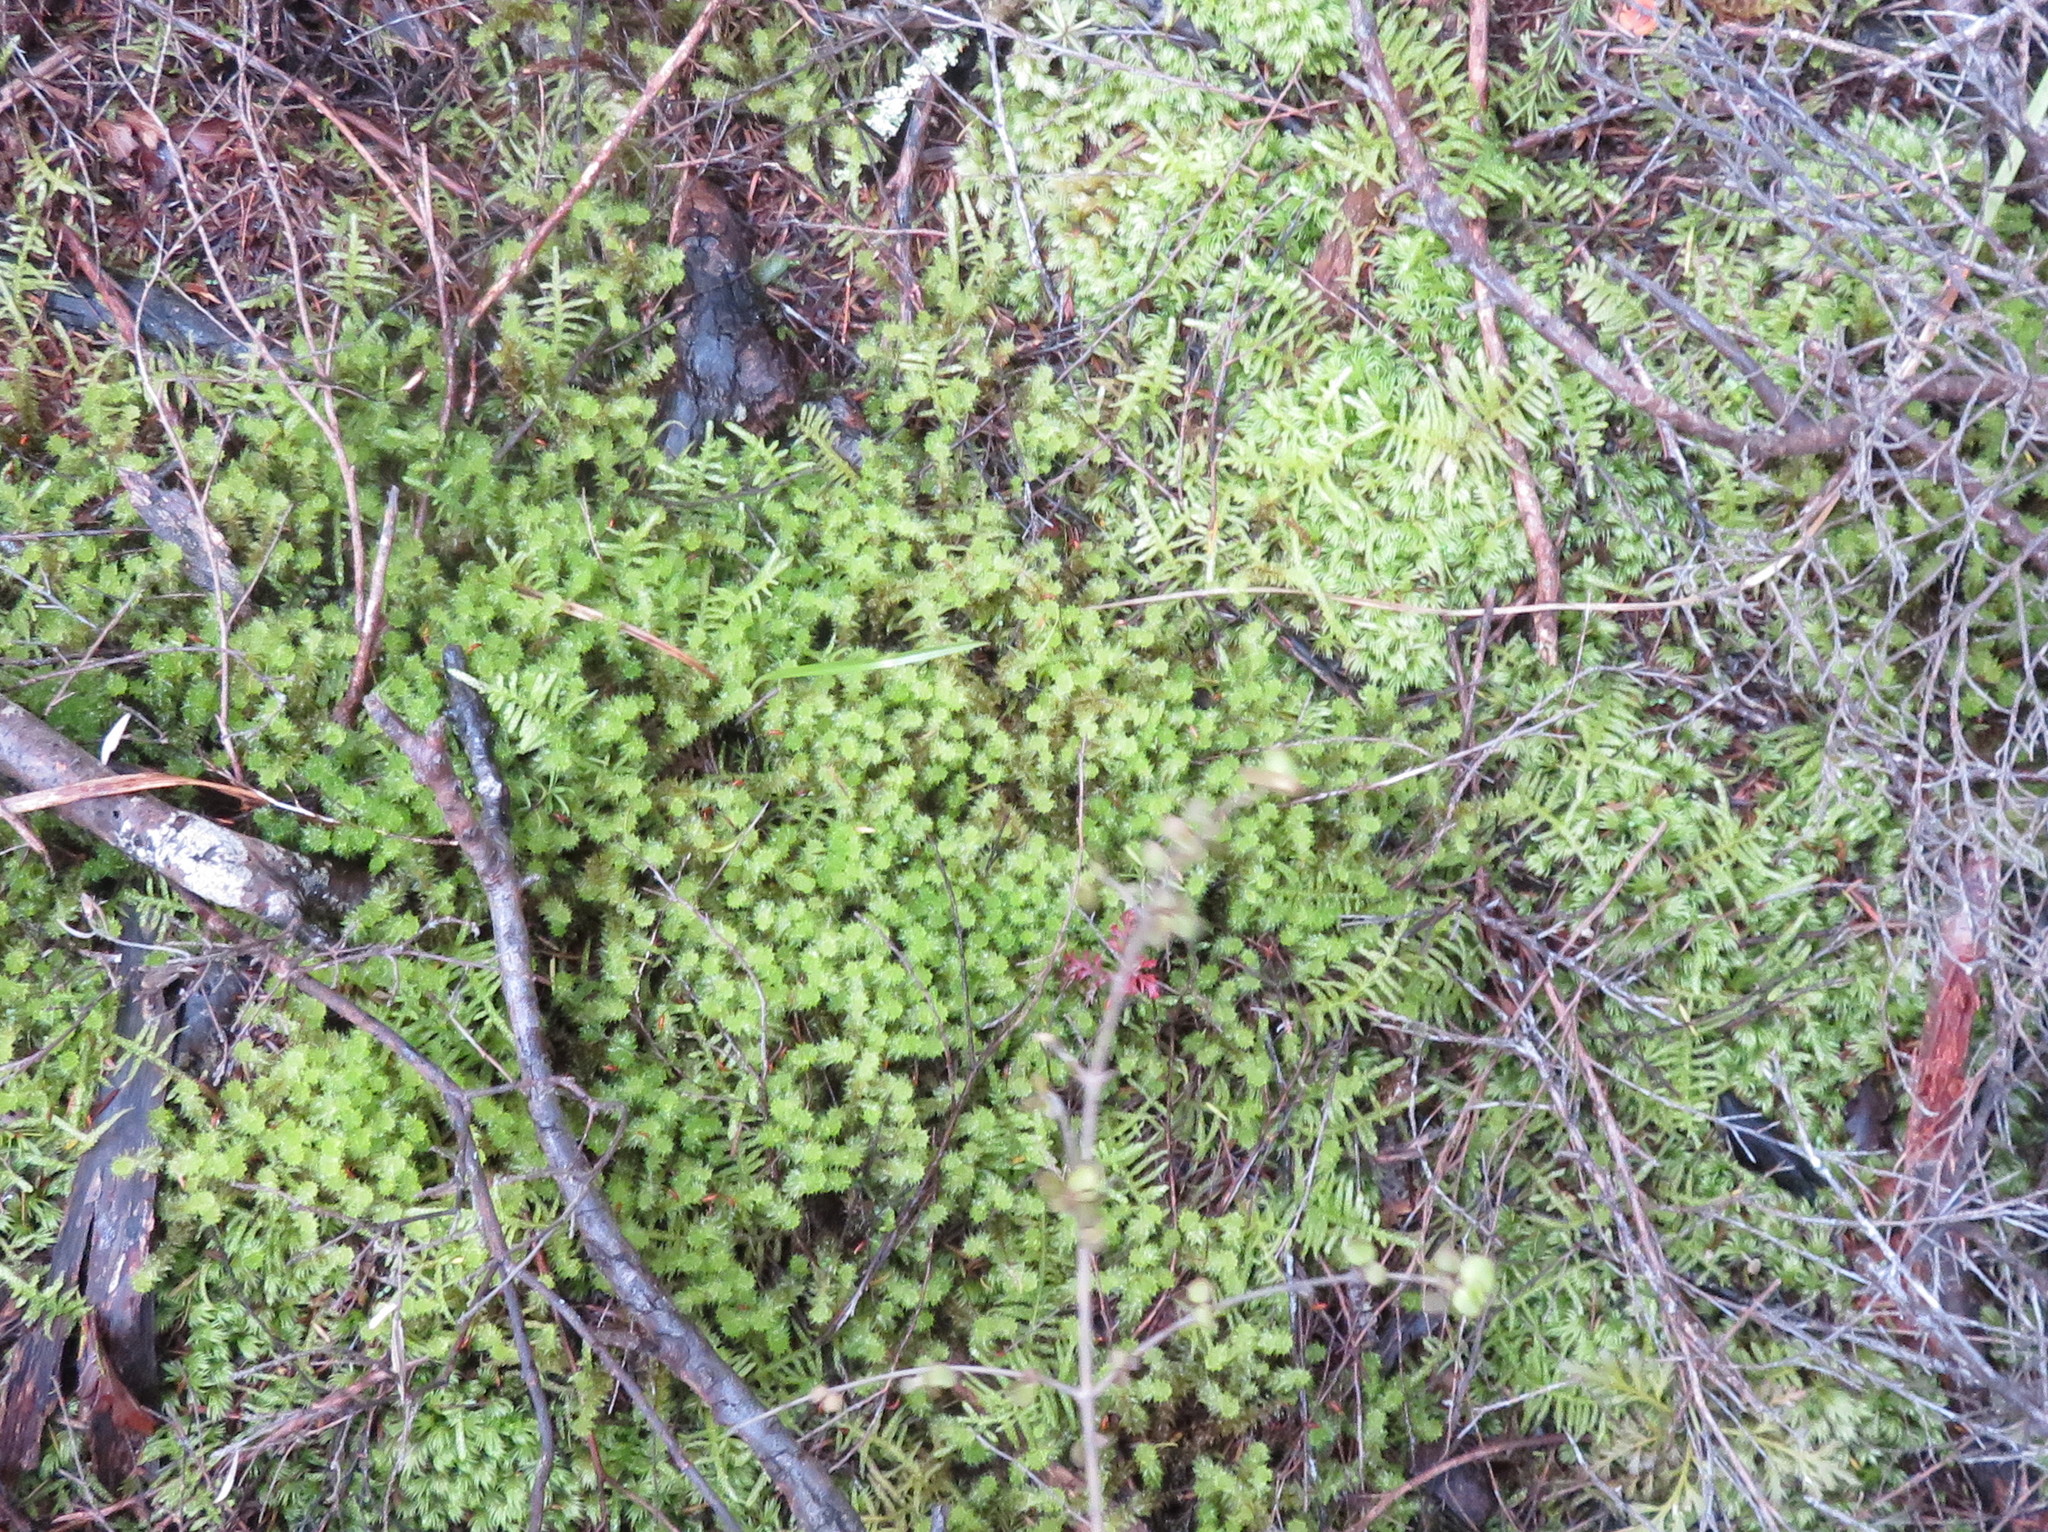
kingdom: Plantae
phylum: Bryophyta
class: Bryopsida
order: Hypnales
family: Brachytheciaceae
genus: Pseudoscleropodium
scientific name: Pseudoscleropodium purum
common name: Neat feather-moss
